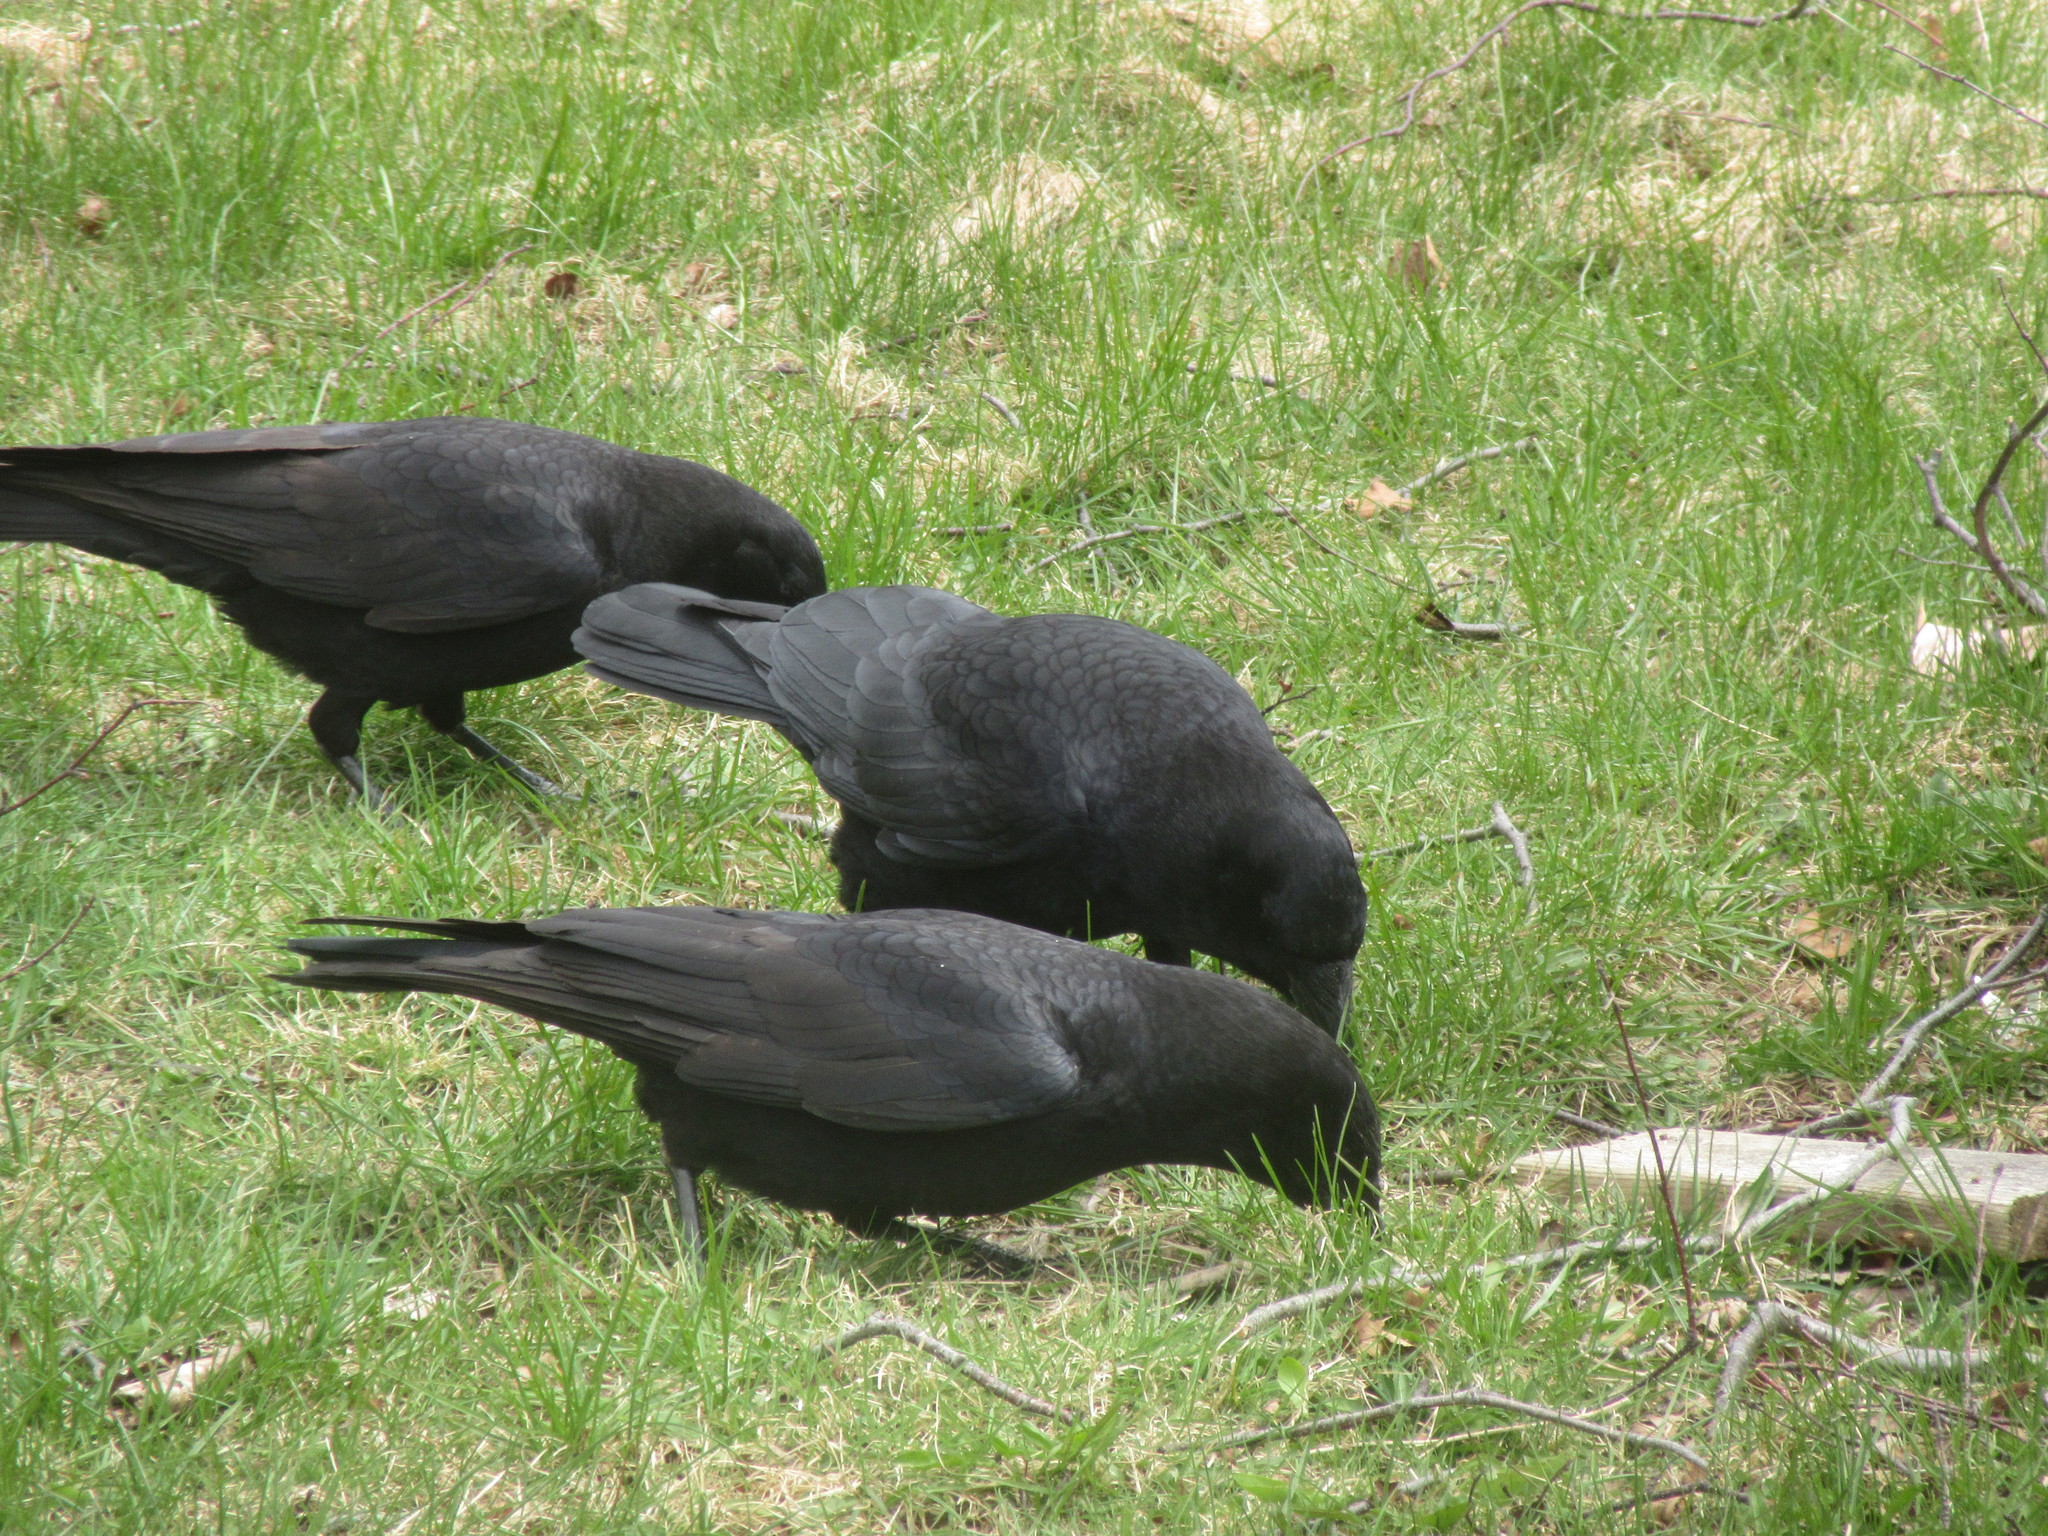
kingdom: Animalia
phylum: Chordata
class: Aves
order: Passeriformes
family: Corvidae
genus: Corvus
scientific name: Corvus brachyrhynchos
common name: American crow
